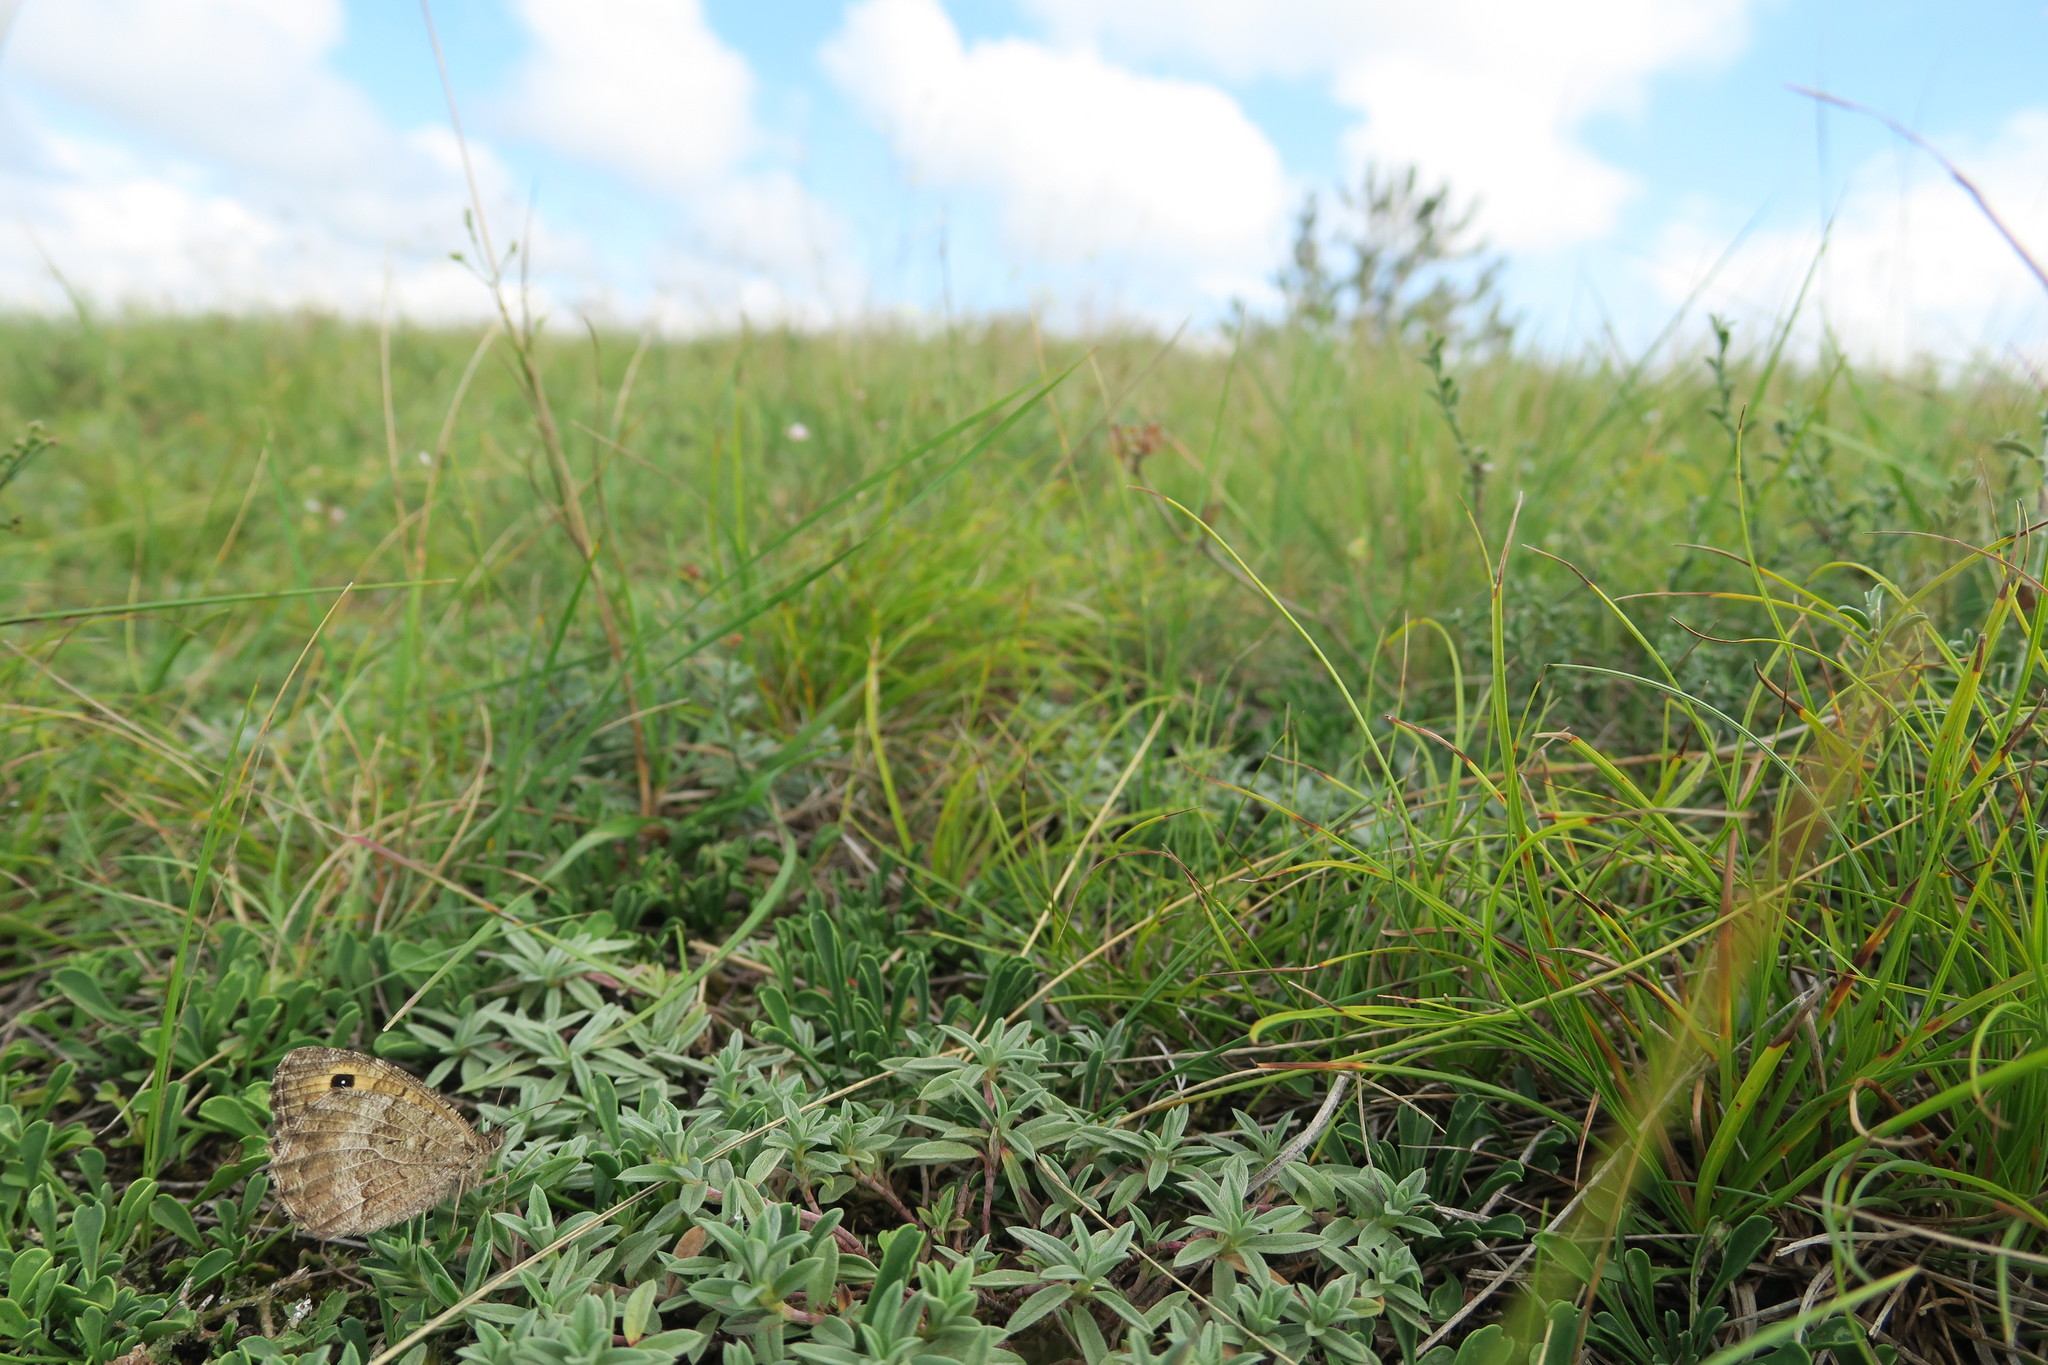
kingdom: Animalia
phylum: Arthropoda
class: Insecta
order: Lepidoptera
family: Nymphalidae
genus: Arethusana
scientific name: Arethusana arethusa
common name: False grayling
